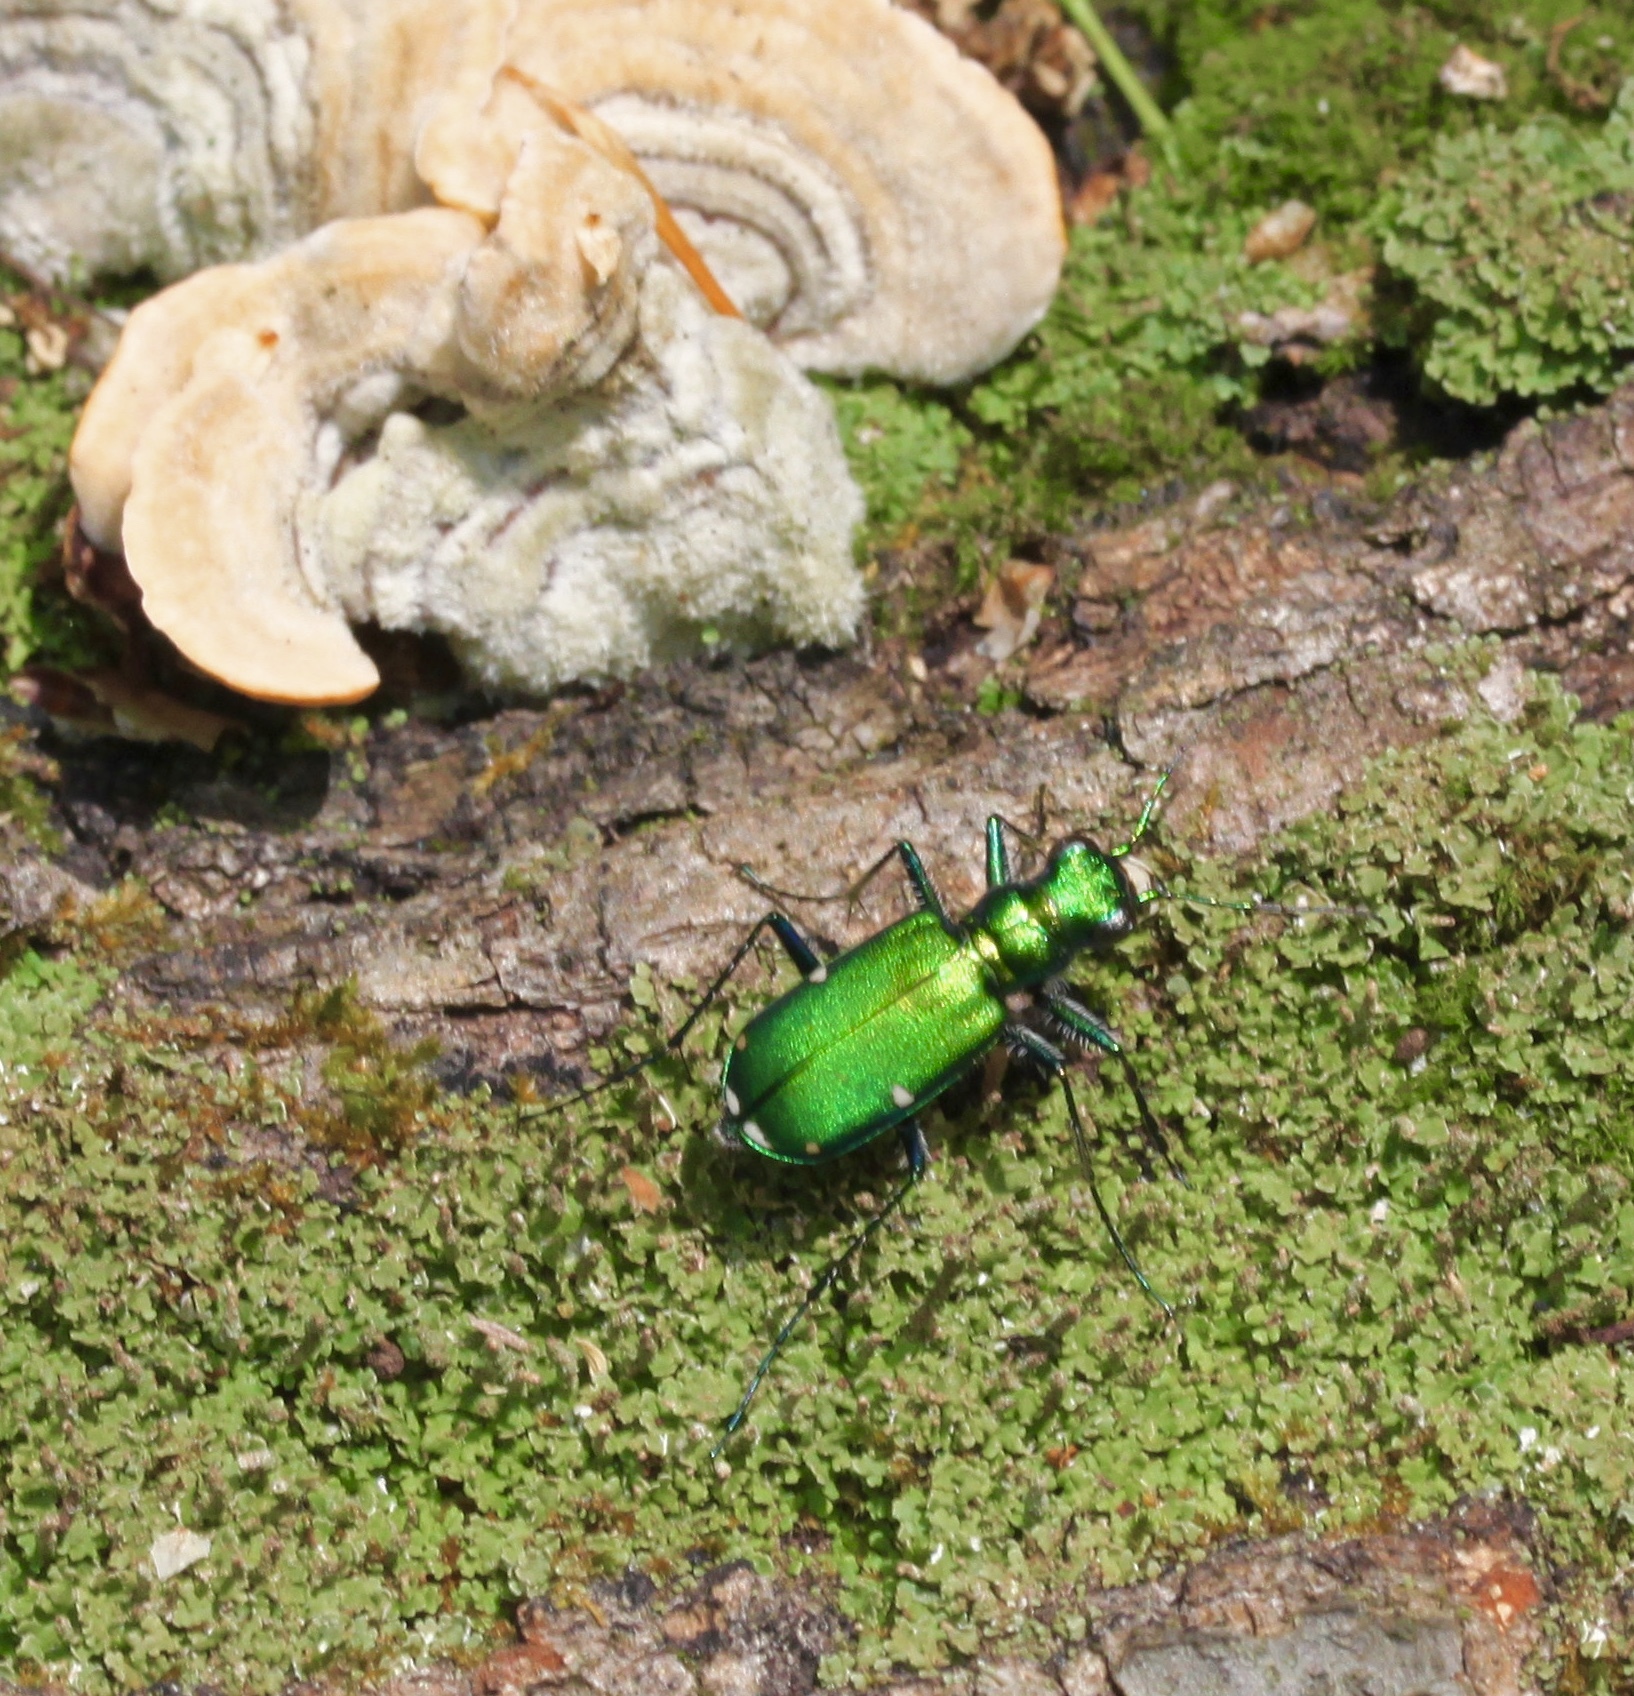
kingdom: Animalia
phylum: Arthropoda
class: Insecta
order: Coleoptera
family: Carabidae
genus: Cicindela
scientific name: Cicindela sexguttata
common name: Six-spotted tiger beetle
